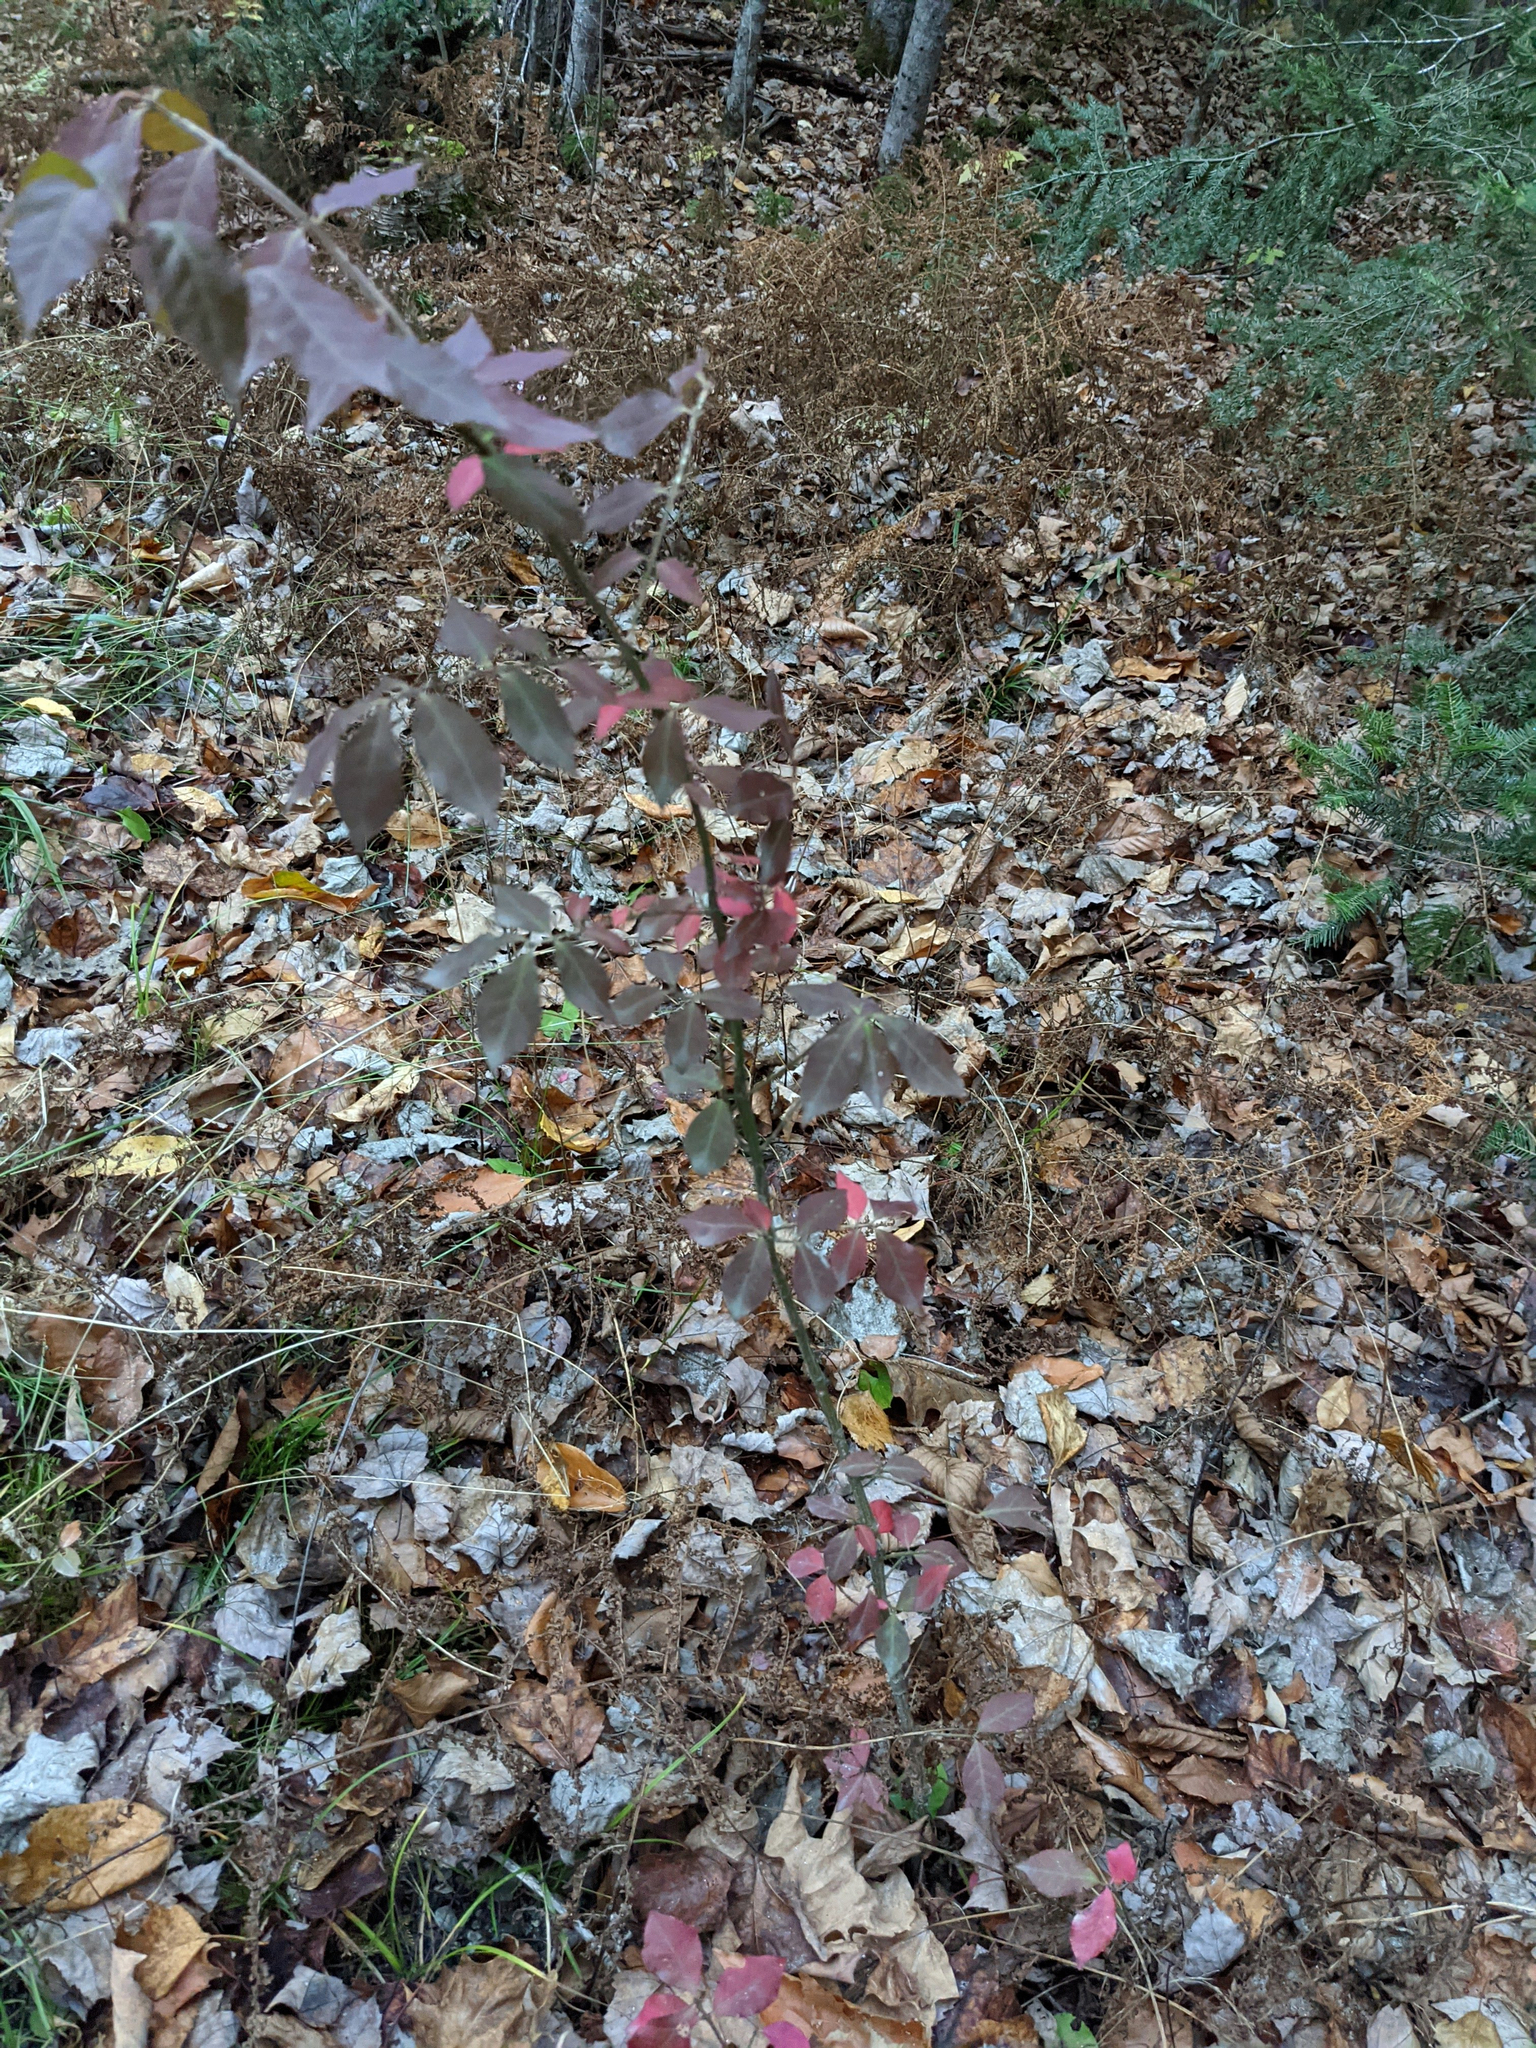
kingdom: Plantae
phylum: Tracheophyta
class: Magnoliopsida
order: Celastrales
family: Celastraceae
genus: Euonymus
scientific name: Euonymus alatus
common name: Winged euonymus
